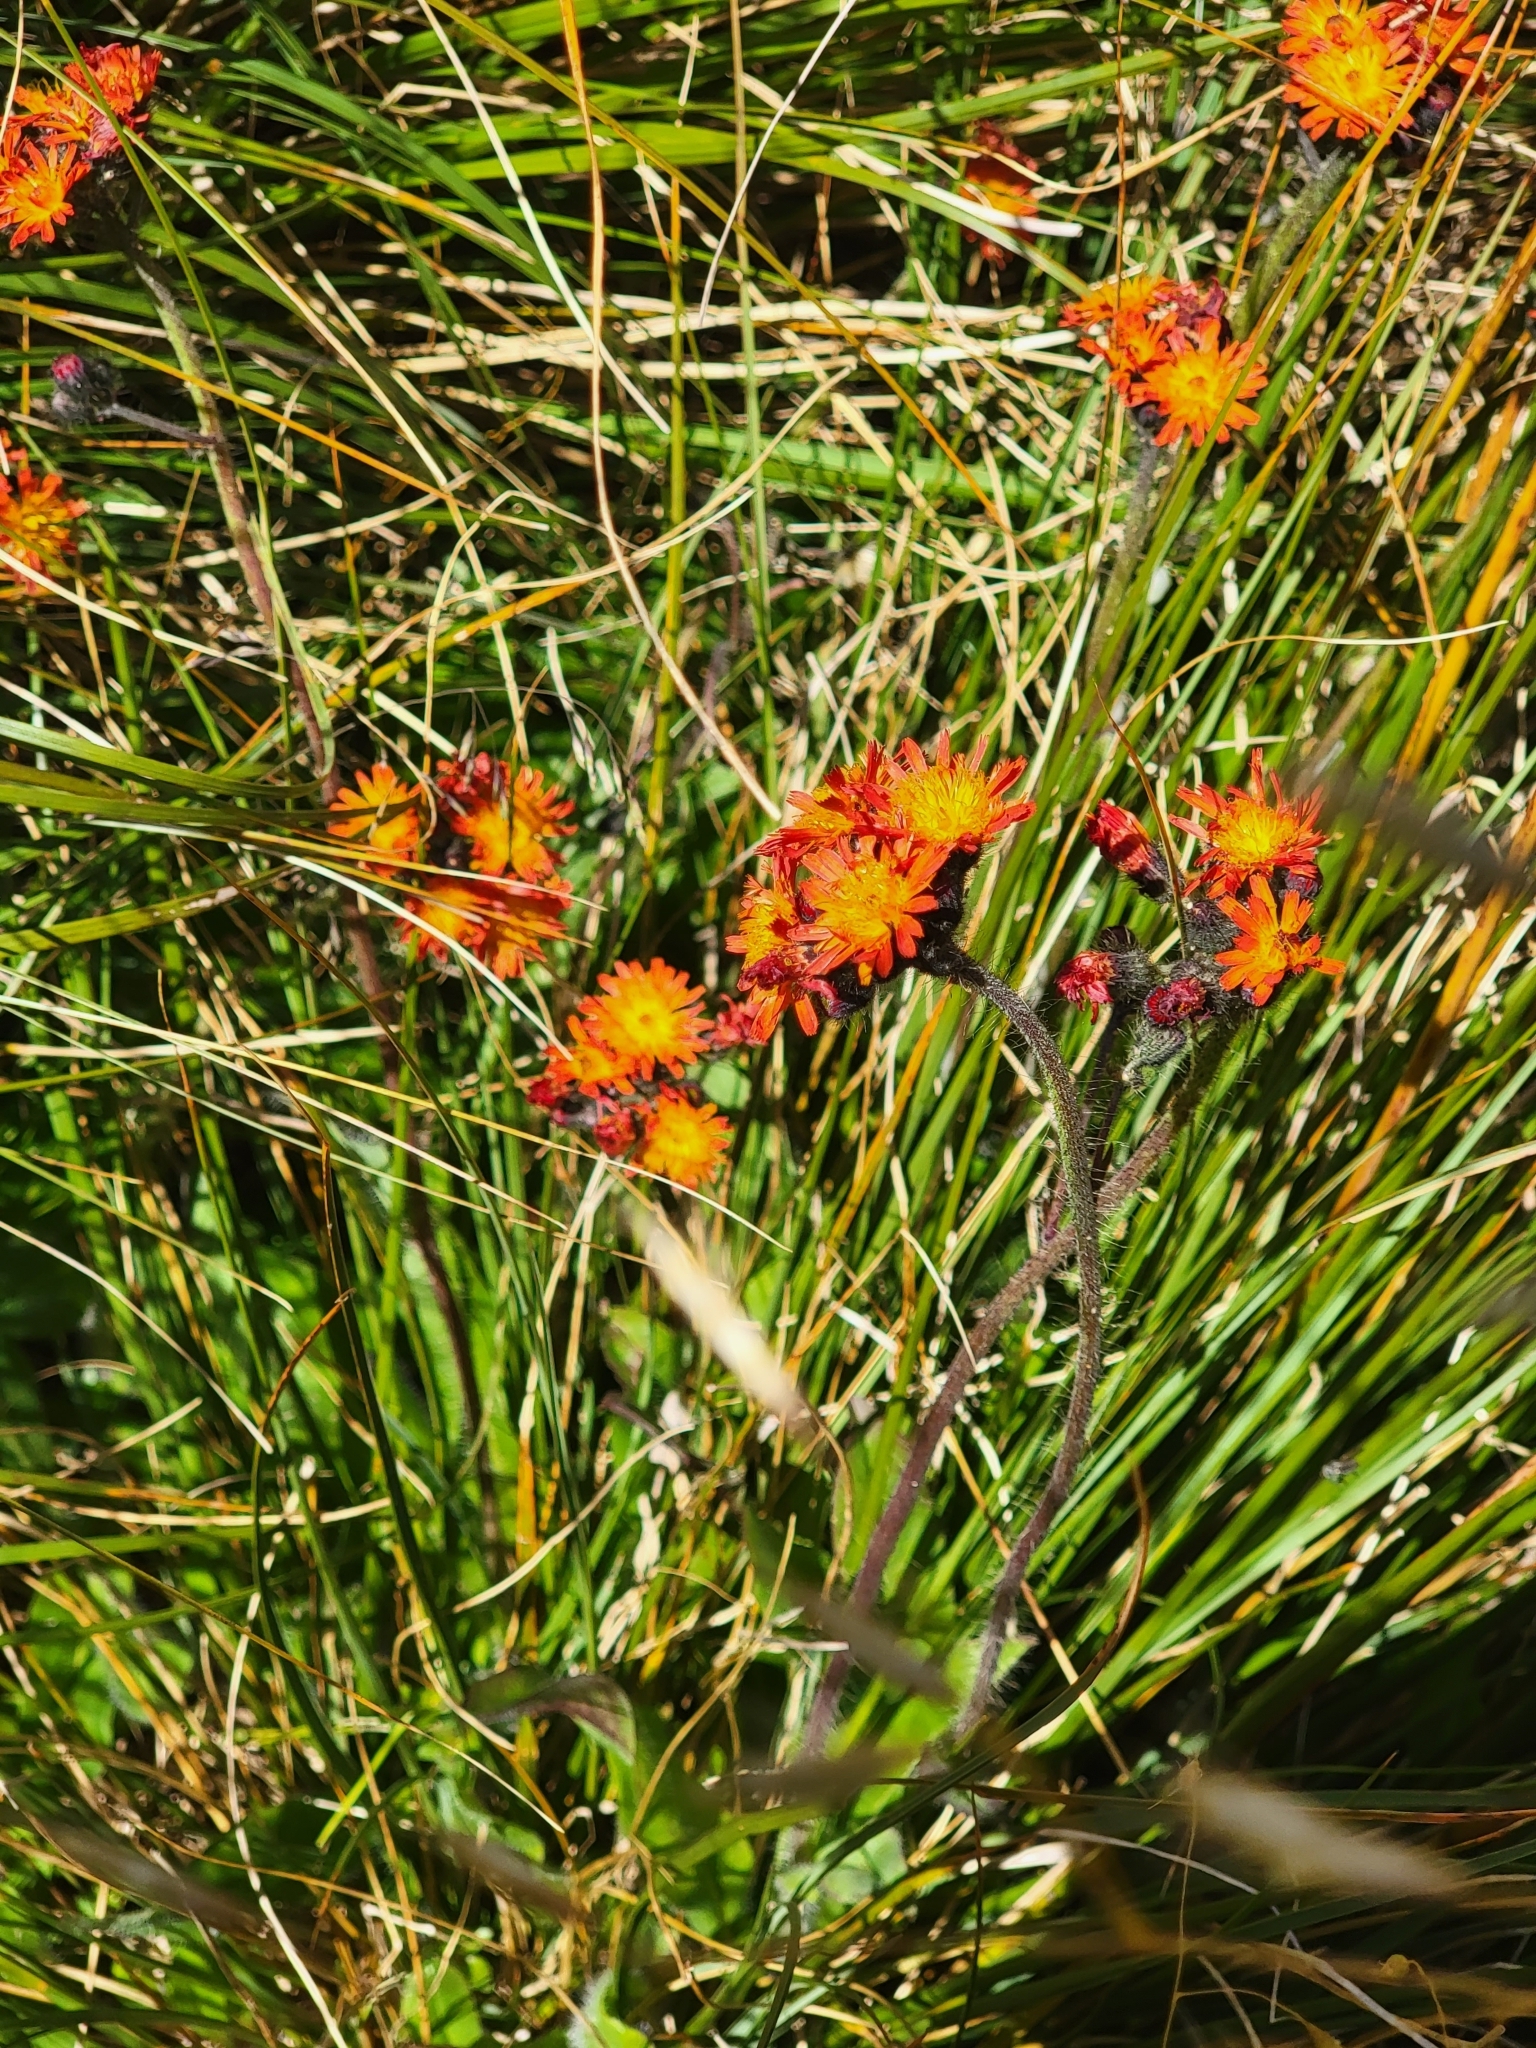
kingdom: Plantae
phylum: Tracheophyta
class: Magnoliopsida
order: Asterales
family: Asteraceae
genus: Pilosella
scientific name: Pilosella aurantiaca
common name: Fox-and-cubs
